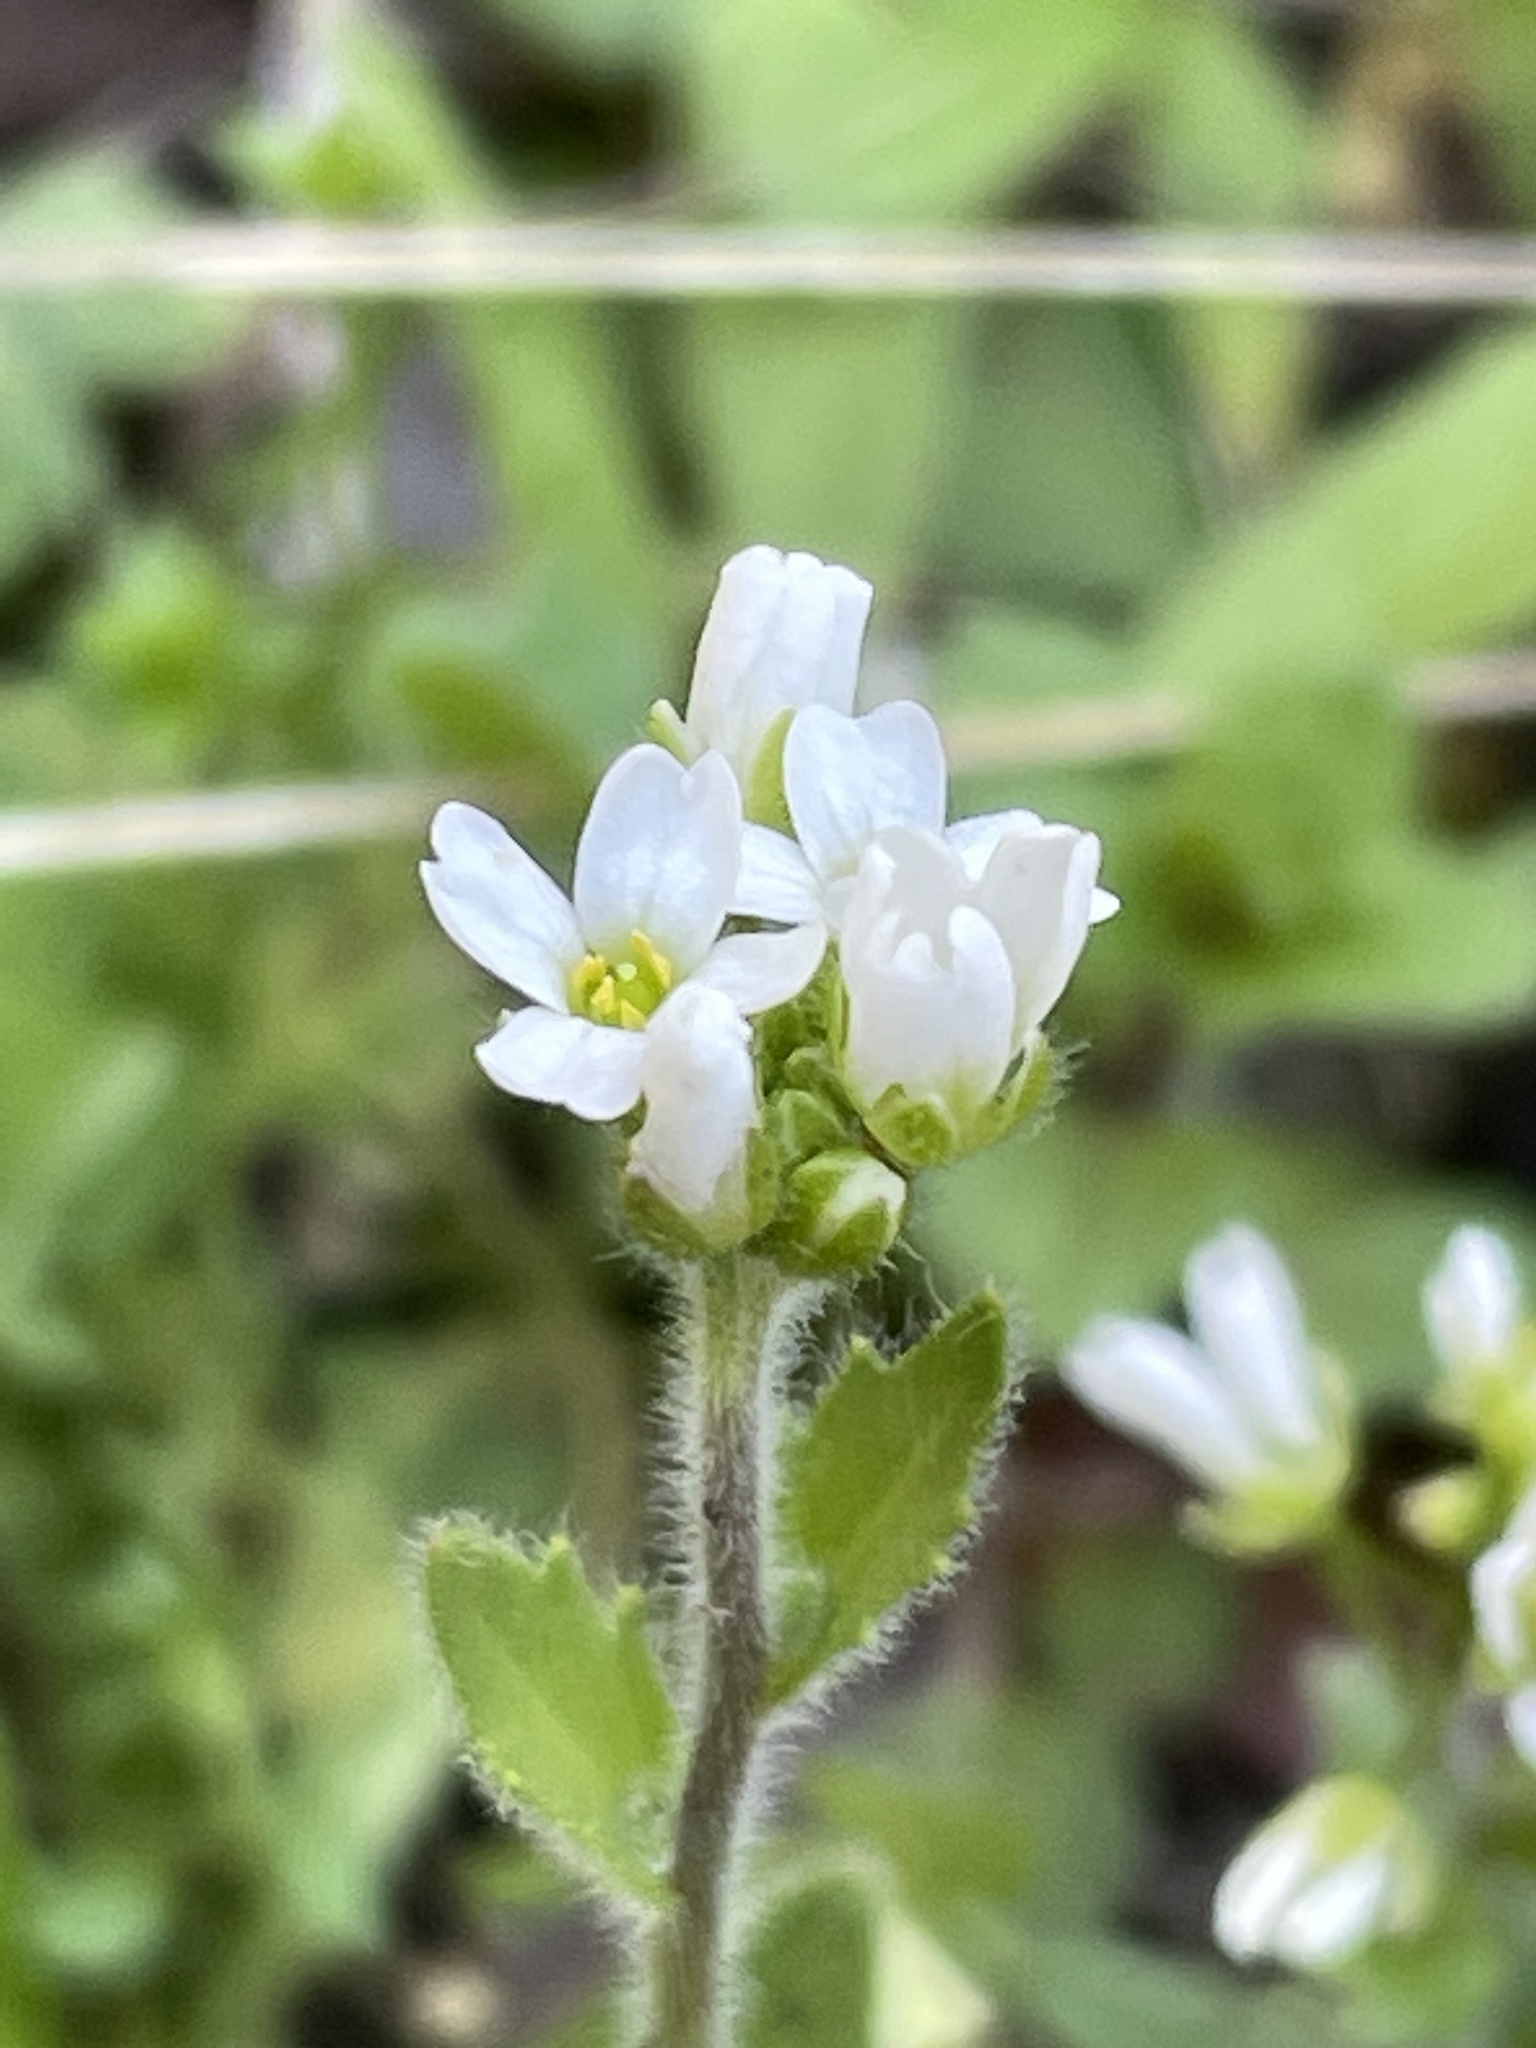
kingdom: Plantae
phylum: Tracheophyta
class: Magnoliopsida
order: Brassicales
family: Brassicaceae
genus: Tomostima
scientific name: Tomostima platycarpa
